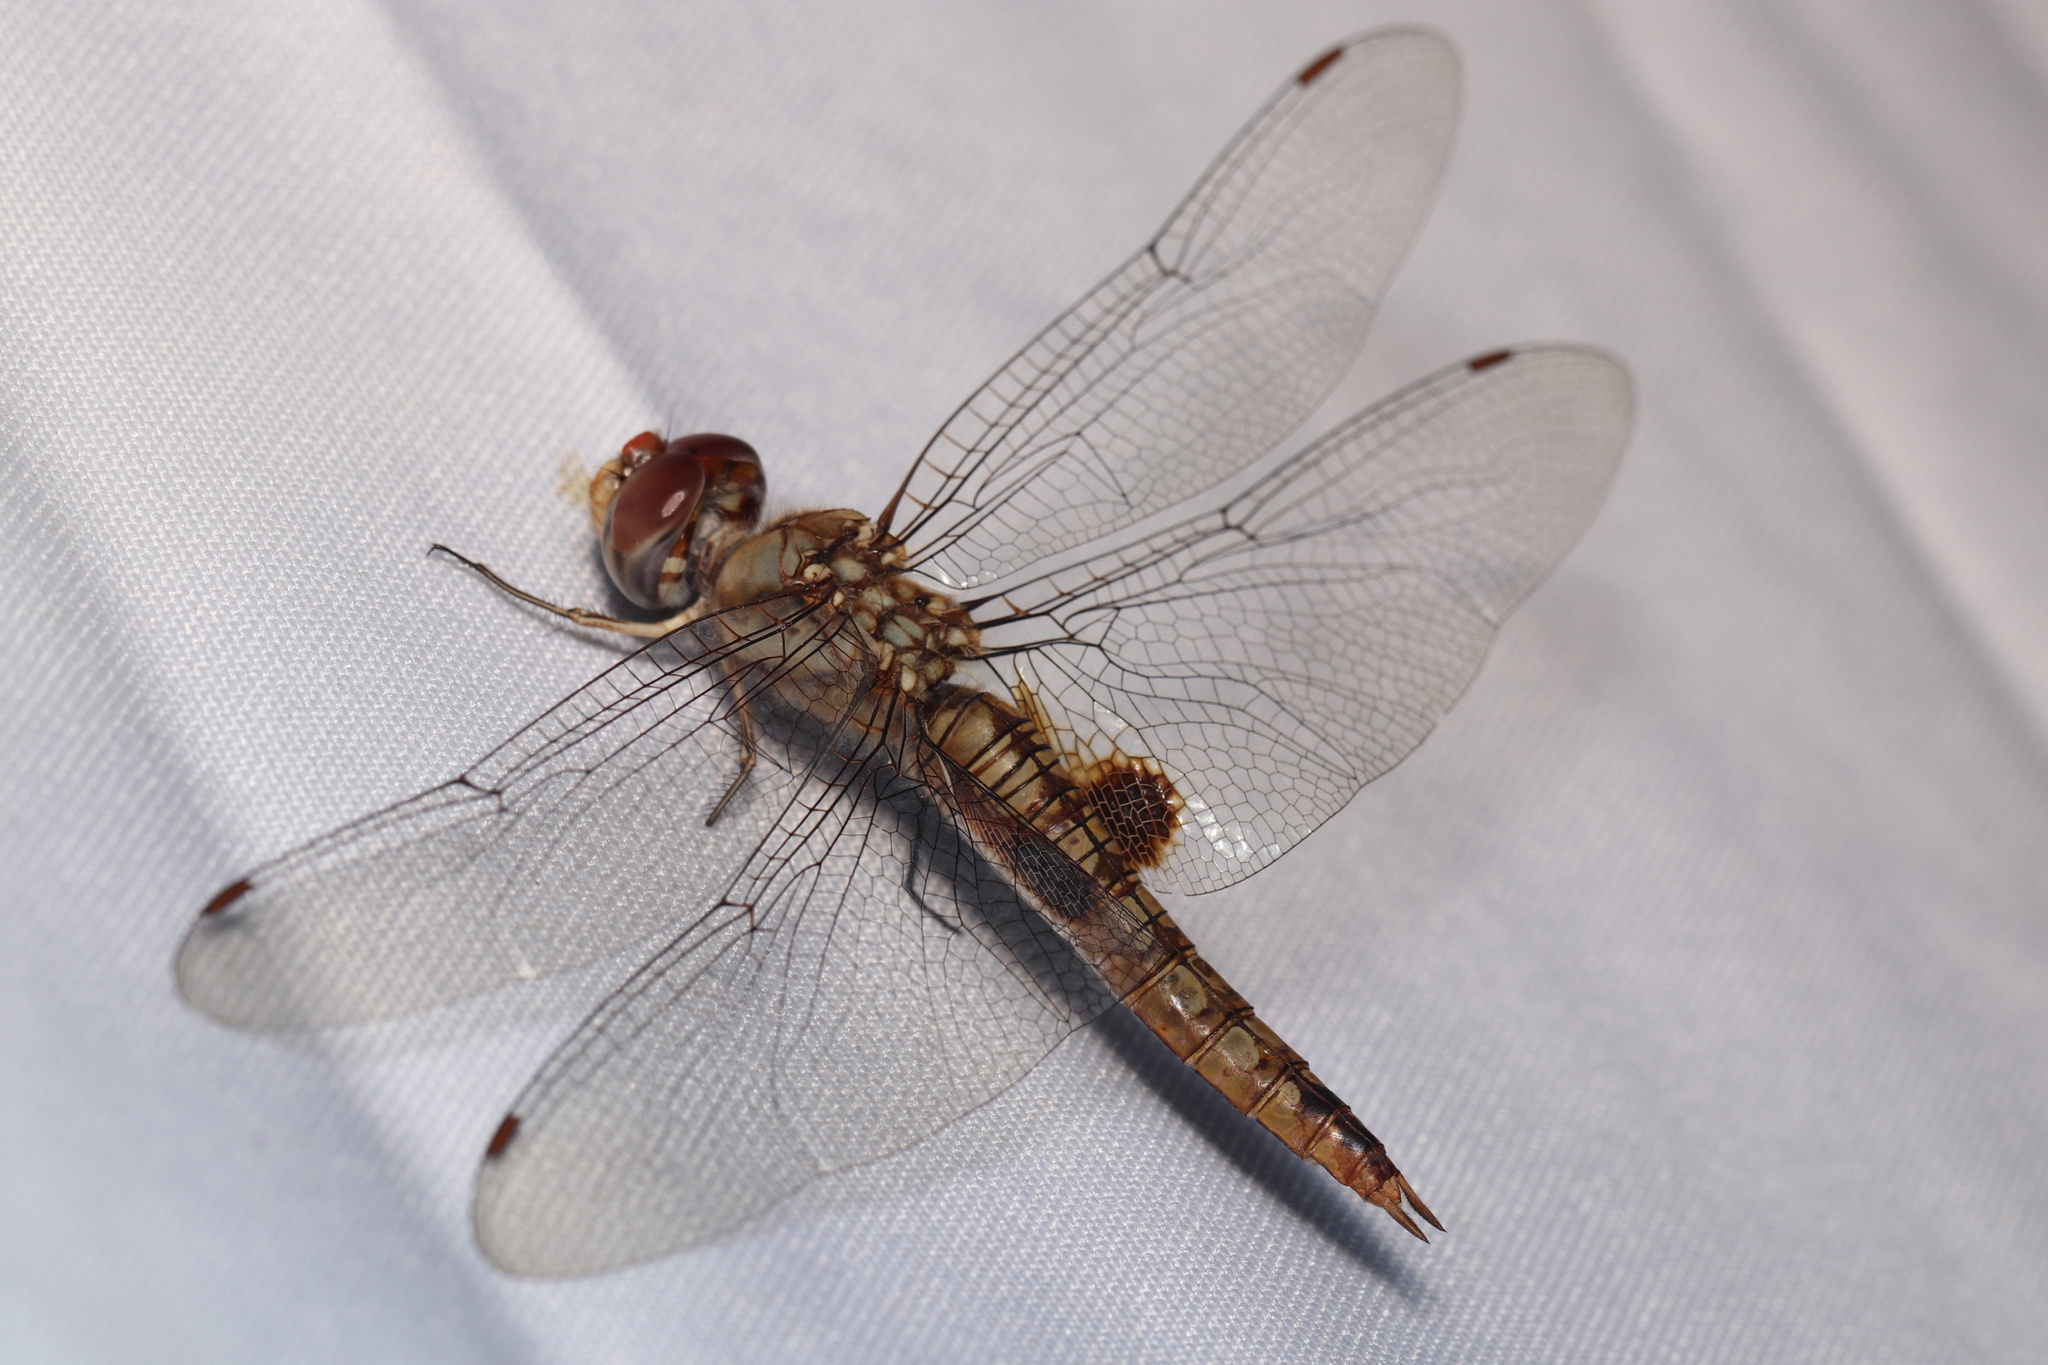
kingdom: Animalia
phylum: Arthropoda
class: Insecta
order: Odonata
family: Libellulidae
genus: Pantala
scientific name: Pantala hymenaea
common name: Spot-winged glider
